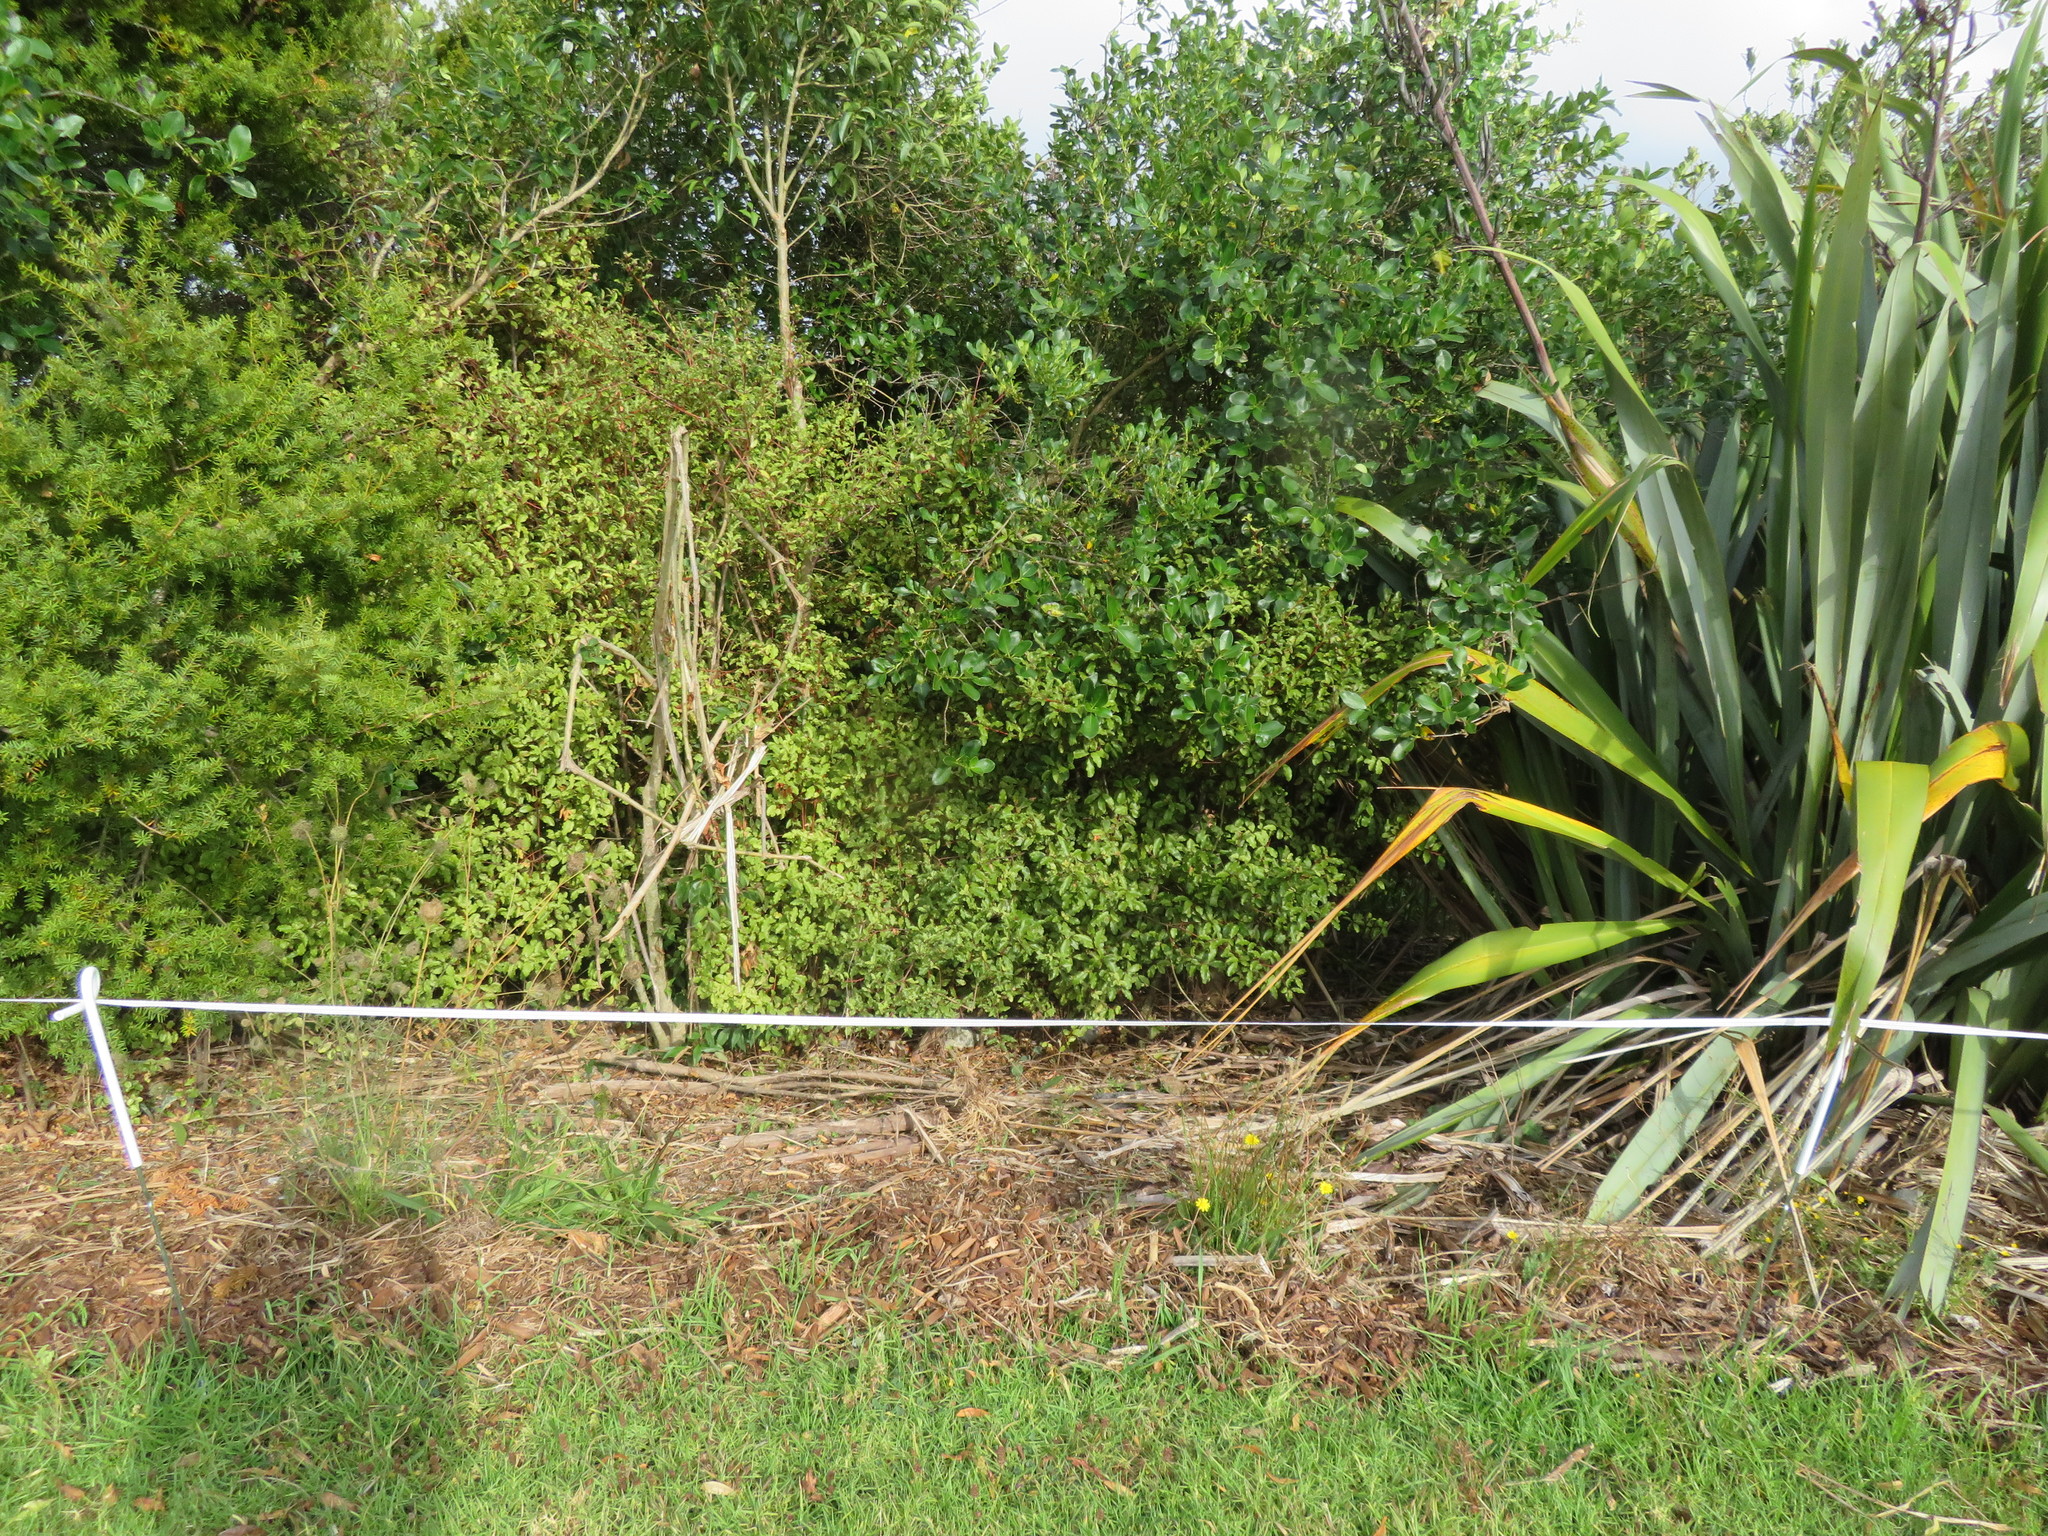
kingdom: Plantae
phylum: Tracheophyta
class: Magnoliopsida
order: Lamiales
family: Oleaceae
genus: Ligustrum
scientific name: Ligustrum lucidum
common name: Glossy privet
